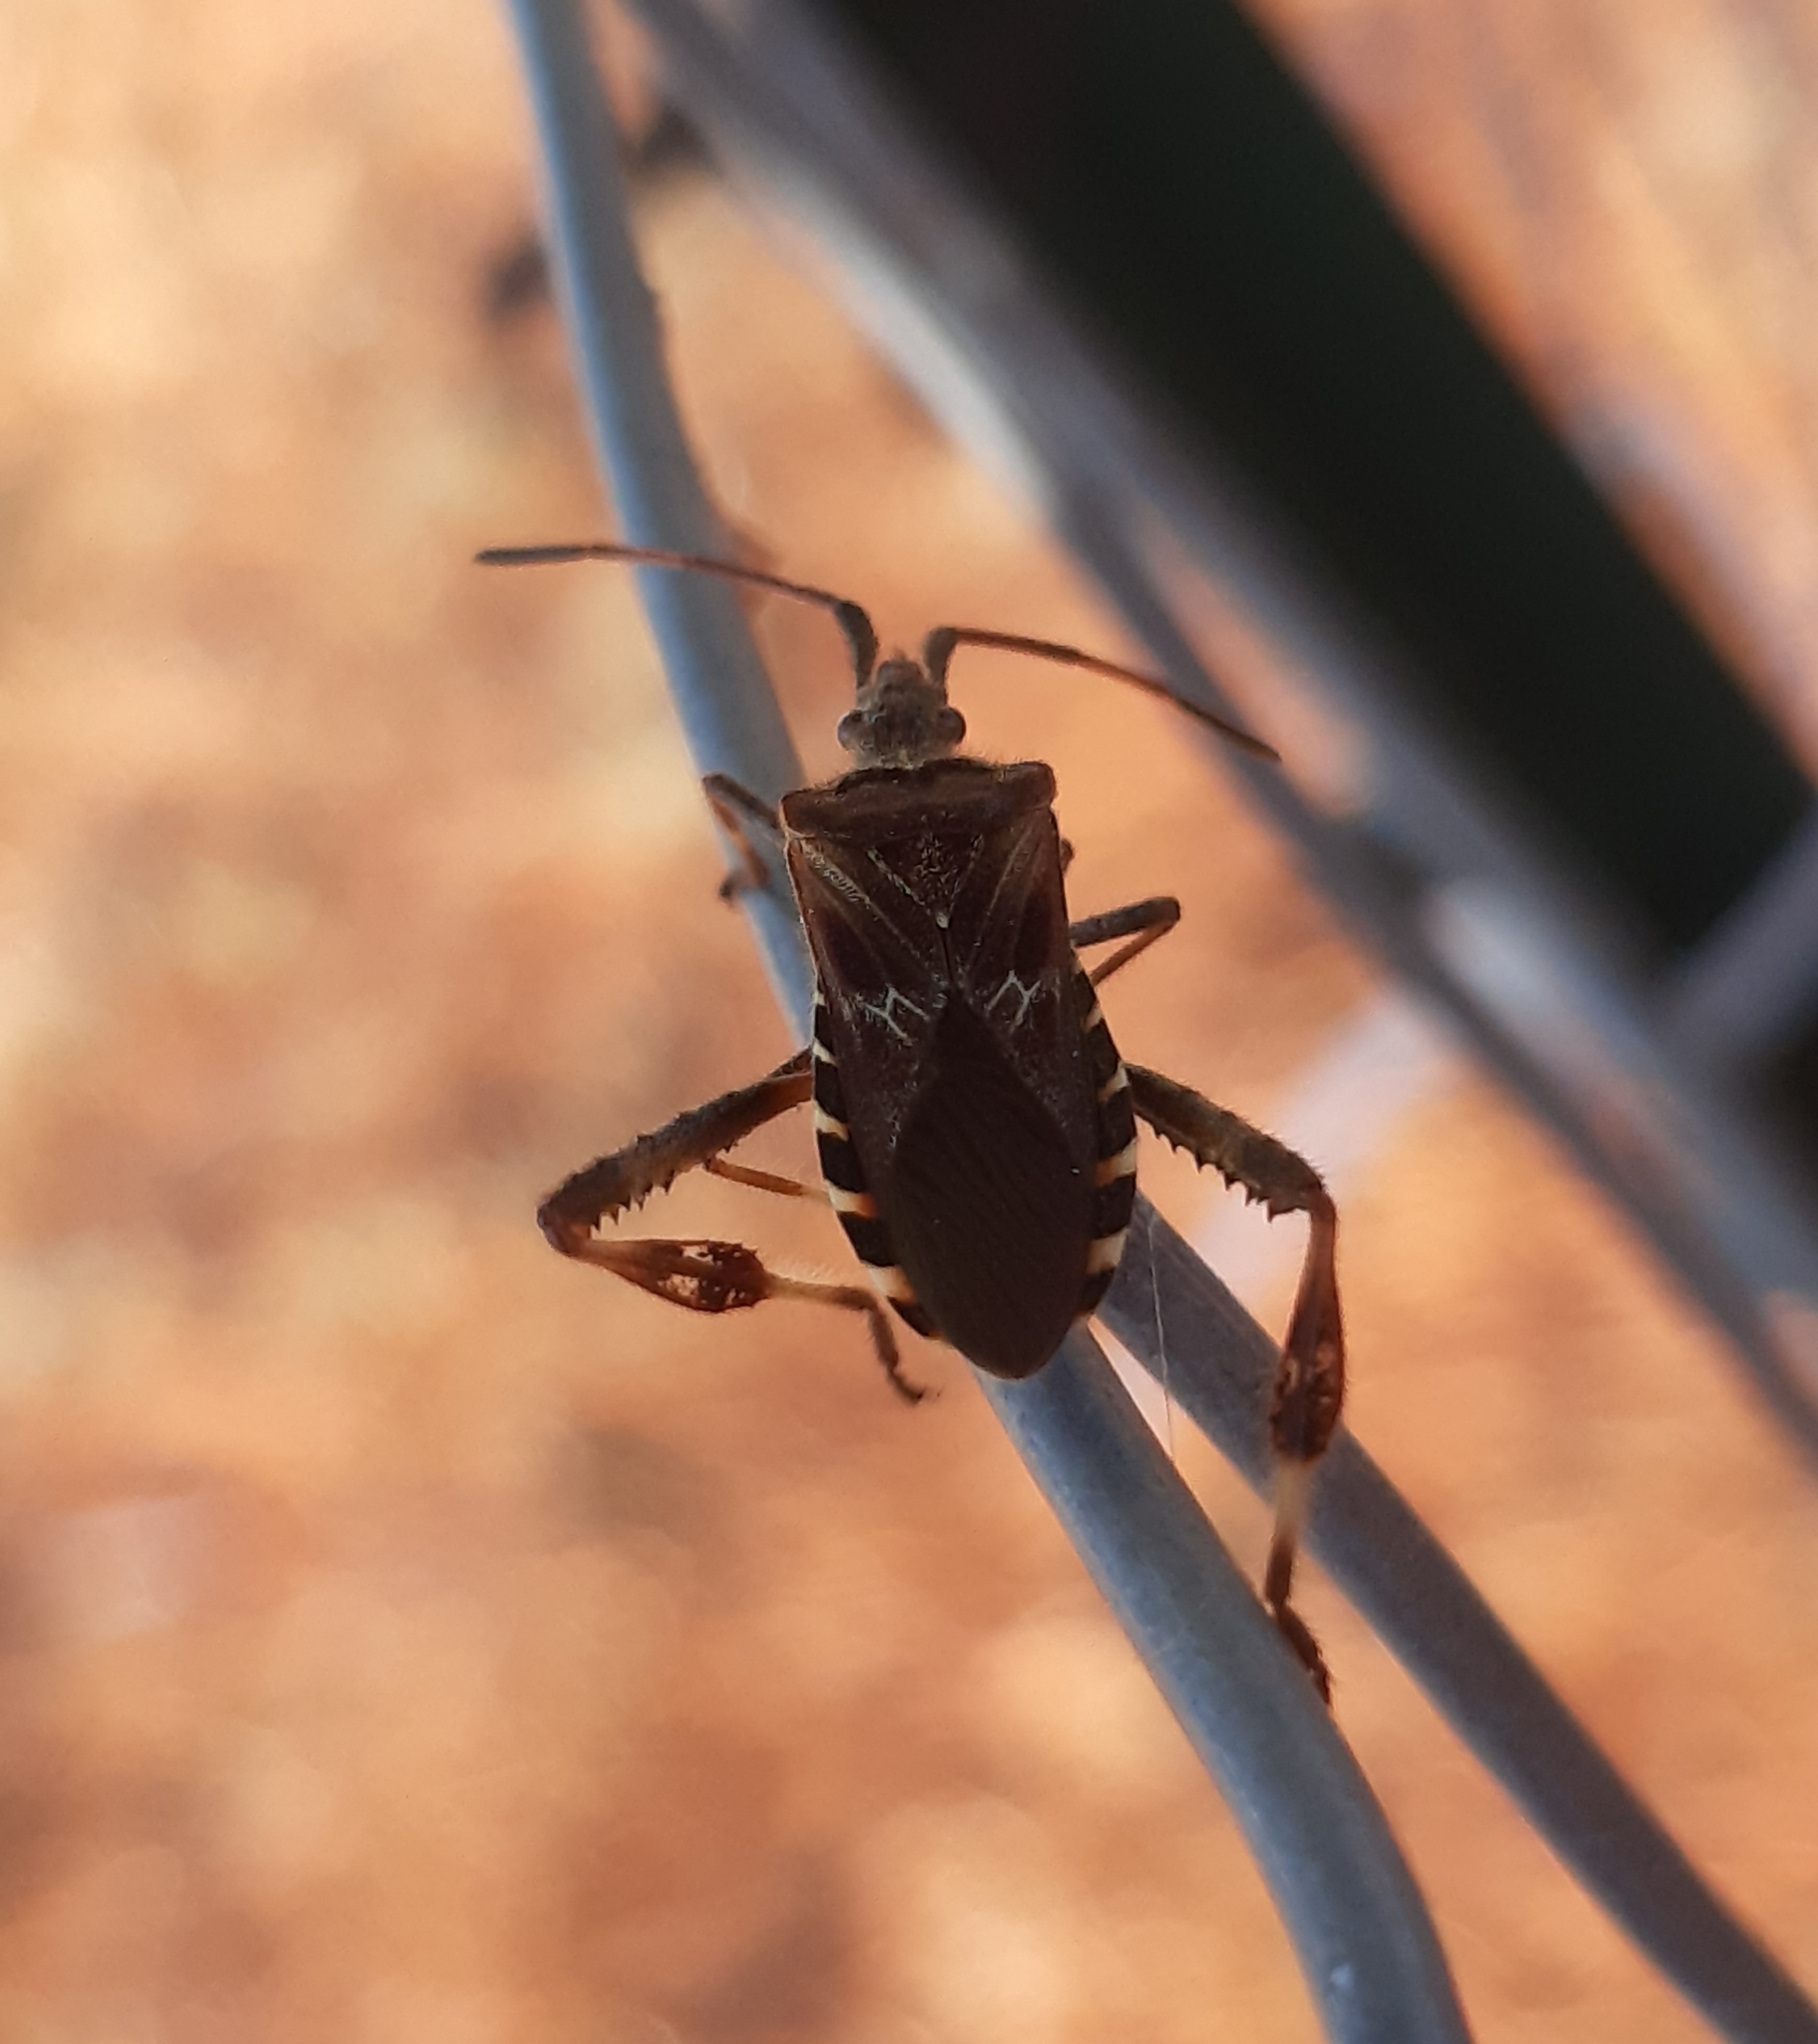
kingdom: Animalia
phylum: Arthropoda
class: Insecta
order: Hemiptera
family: Coreidae
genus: Leptoglossus
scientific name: Leptoglossus occidentalis
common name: Western conifer-seed bug
